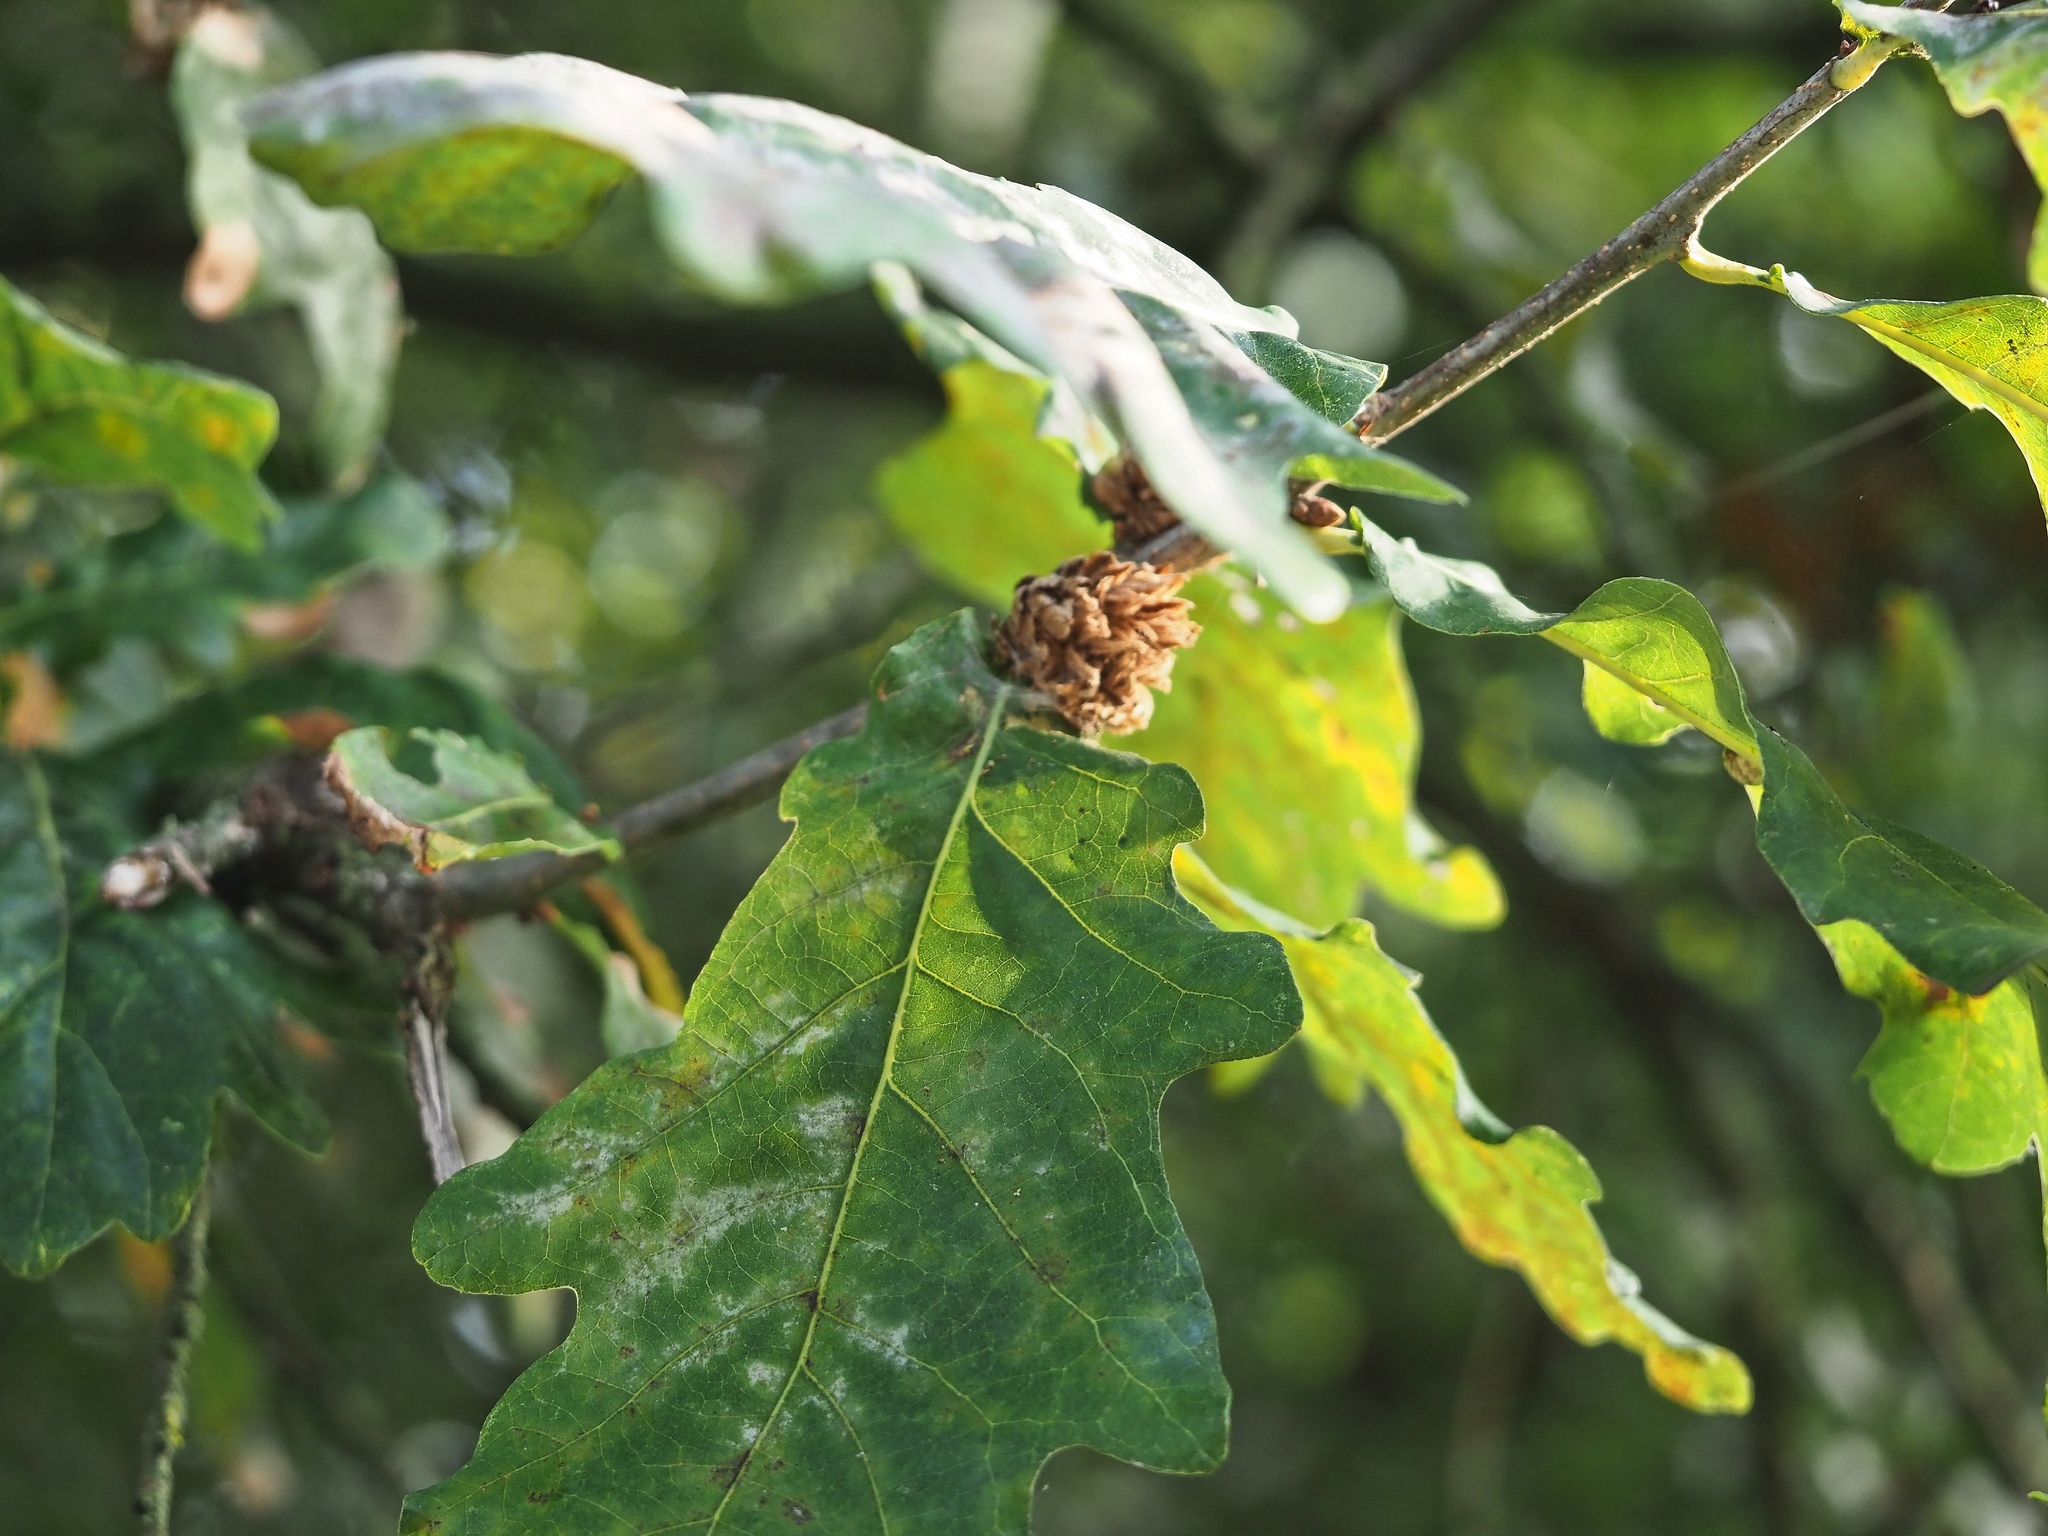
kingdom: Animalia
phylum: Arthropoda
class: Insecta
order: Hymenoptera
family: Cynipidae
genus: Andricus
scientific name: Andricus foecundatrix
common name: Artichoke gall
